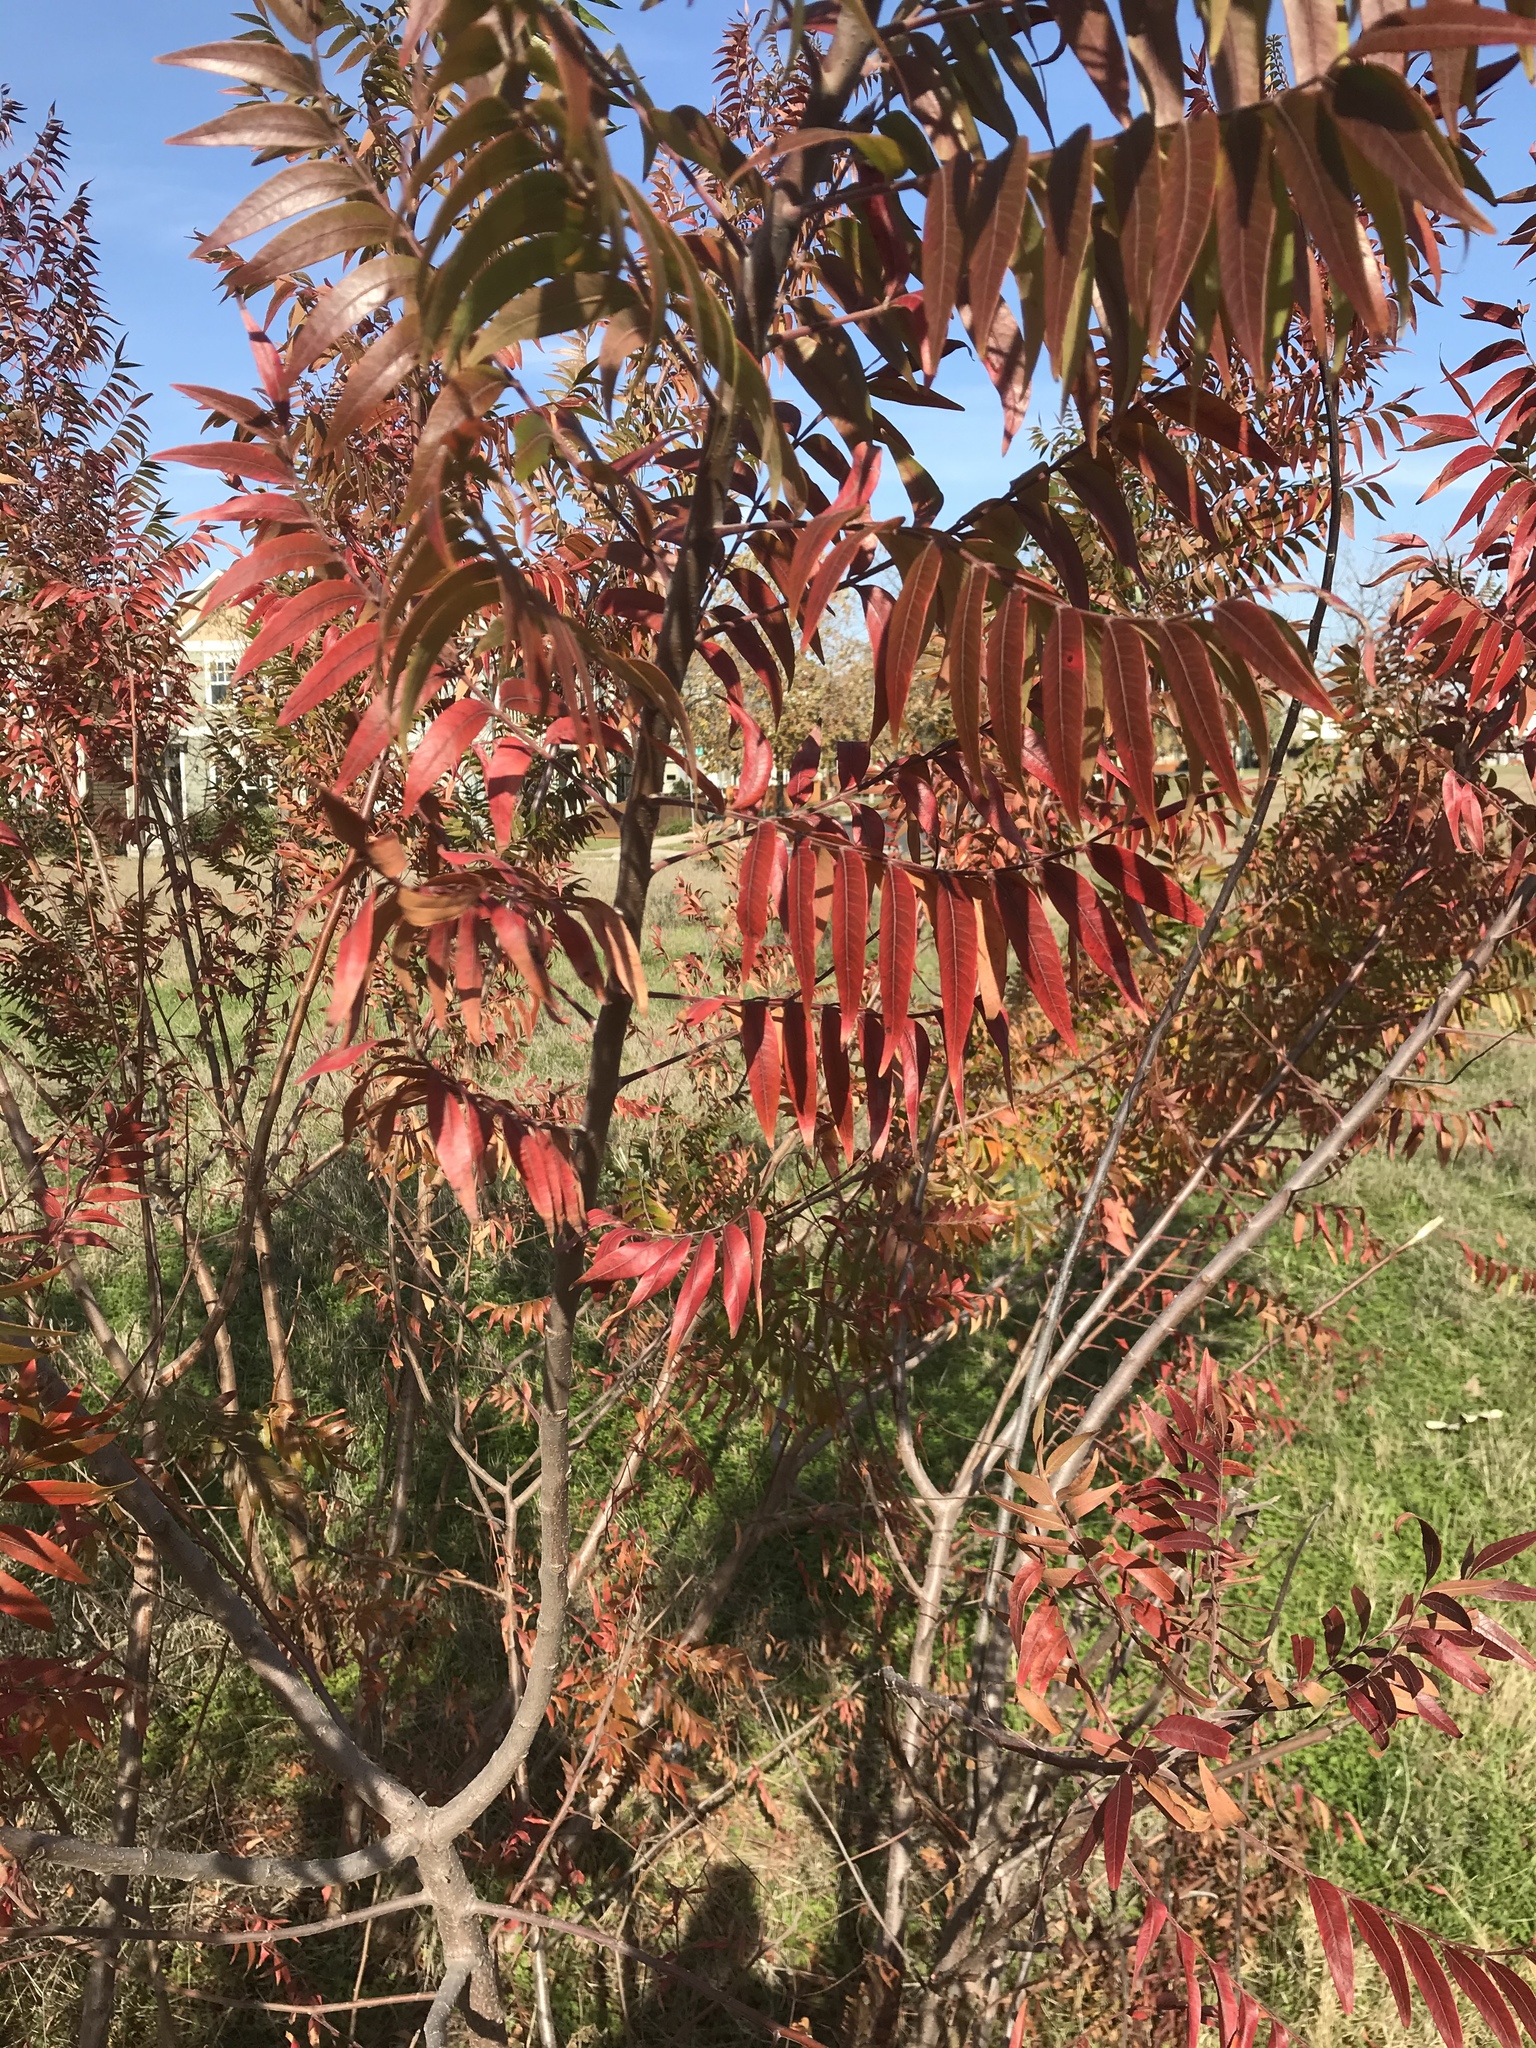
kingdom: Plantae
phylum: Tracheophyta
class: Magnoliopsida
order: Sapindales
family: Anacardiaceae
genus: Rhus
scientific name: Rhus lanceolata
